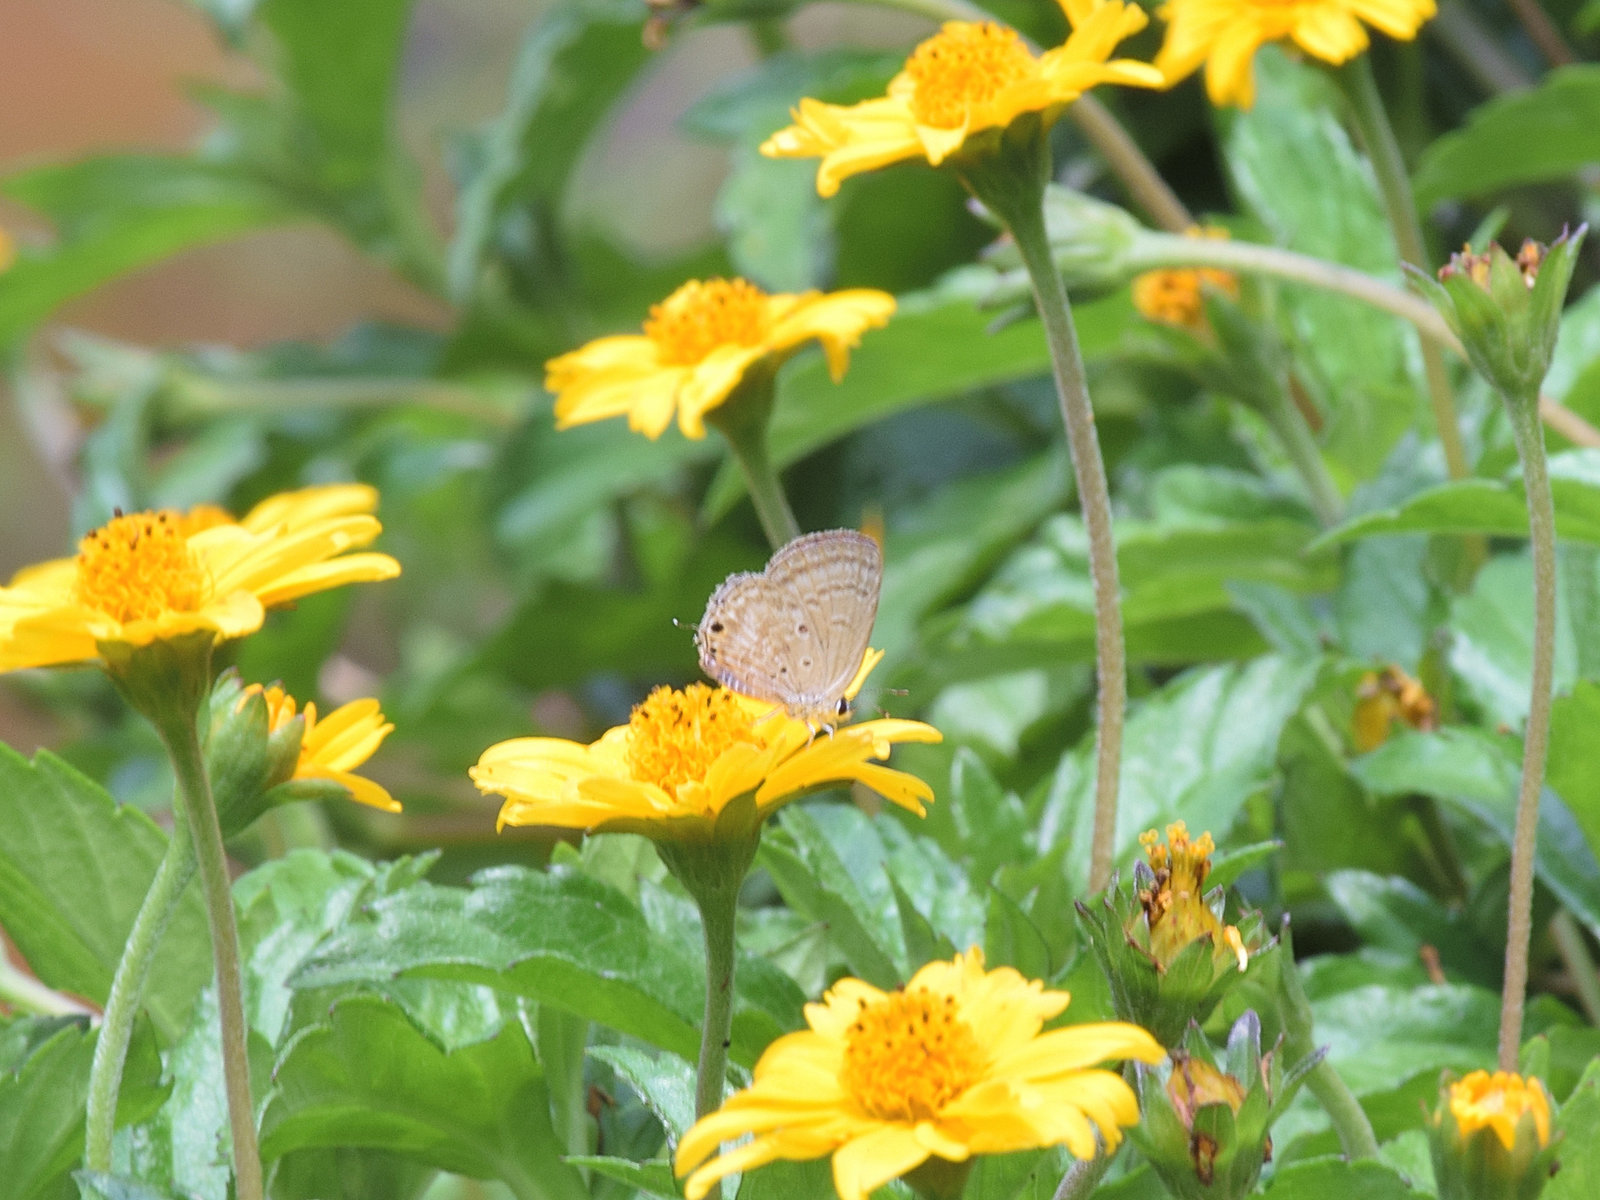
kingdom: Animalia
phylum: Arthropoda
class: Insecta
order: Lepidoptera
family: Lycaenidae
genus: Luthrodes
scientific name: Luthrodes pandava
